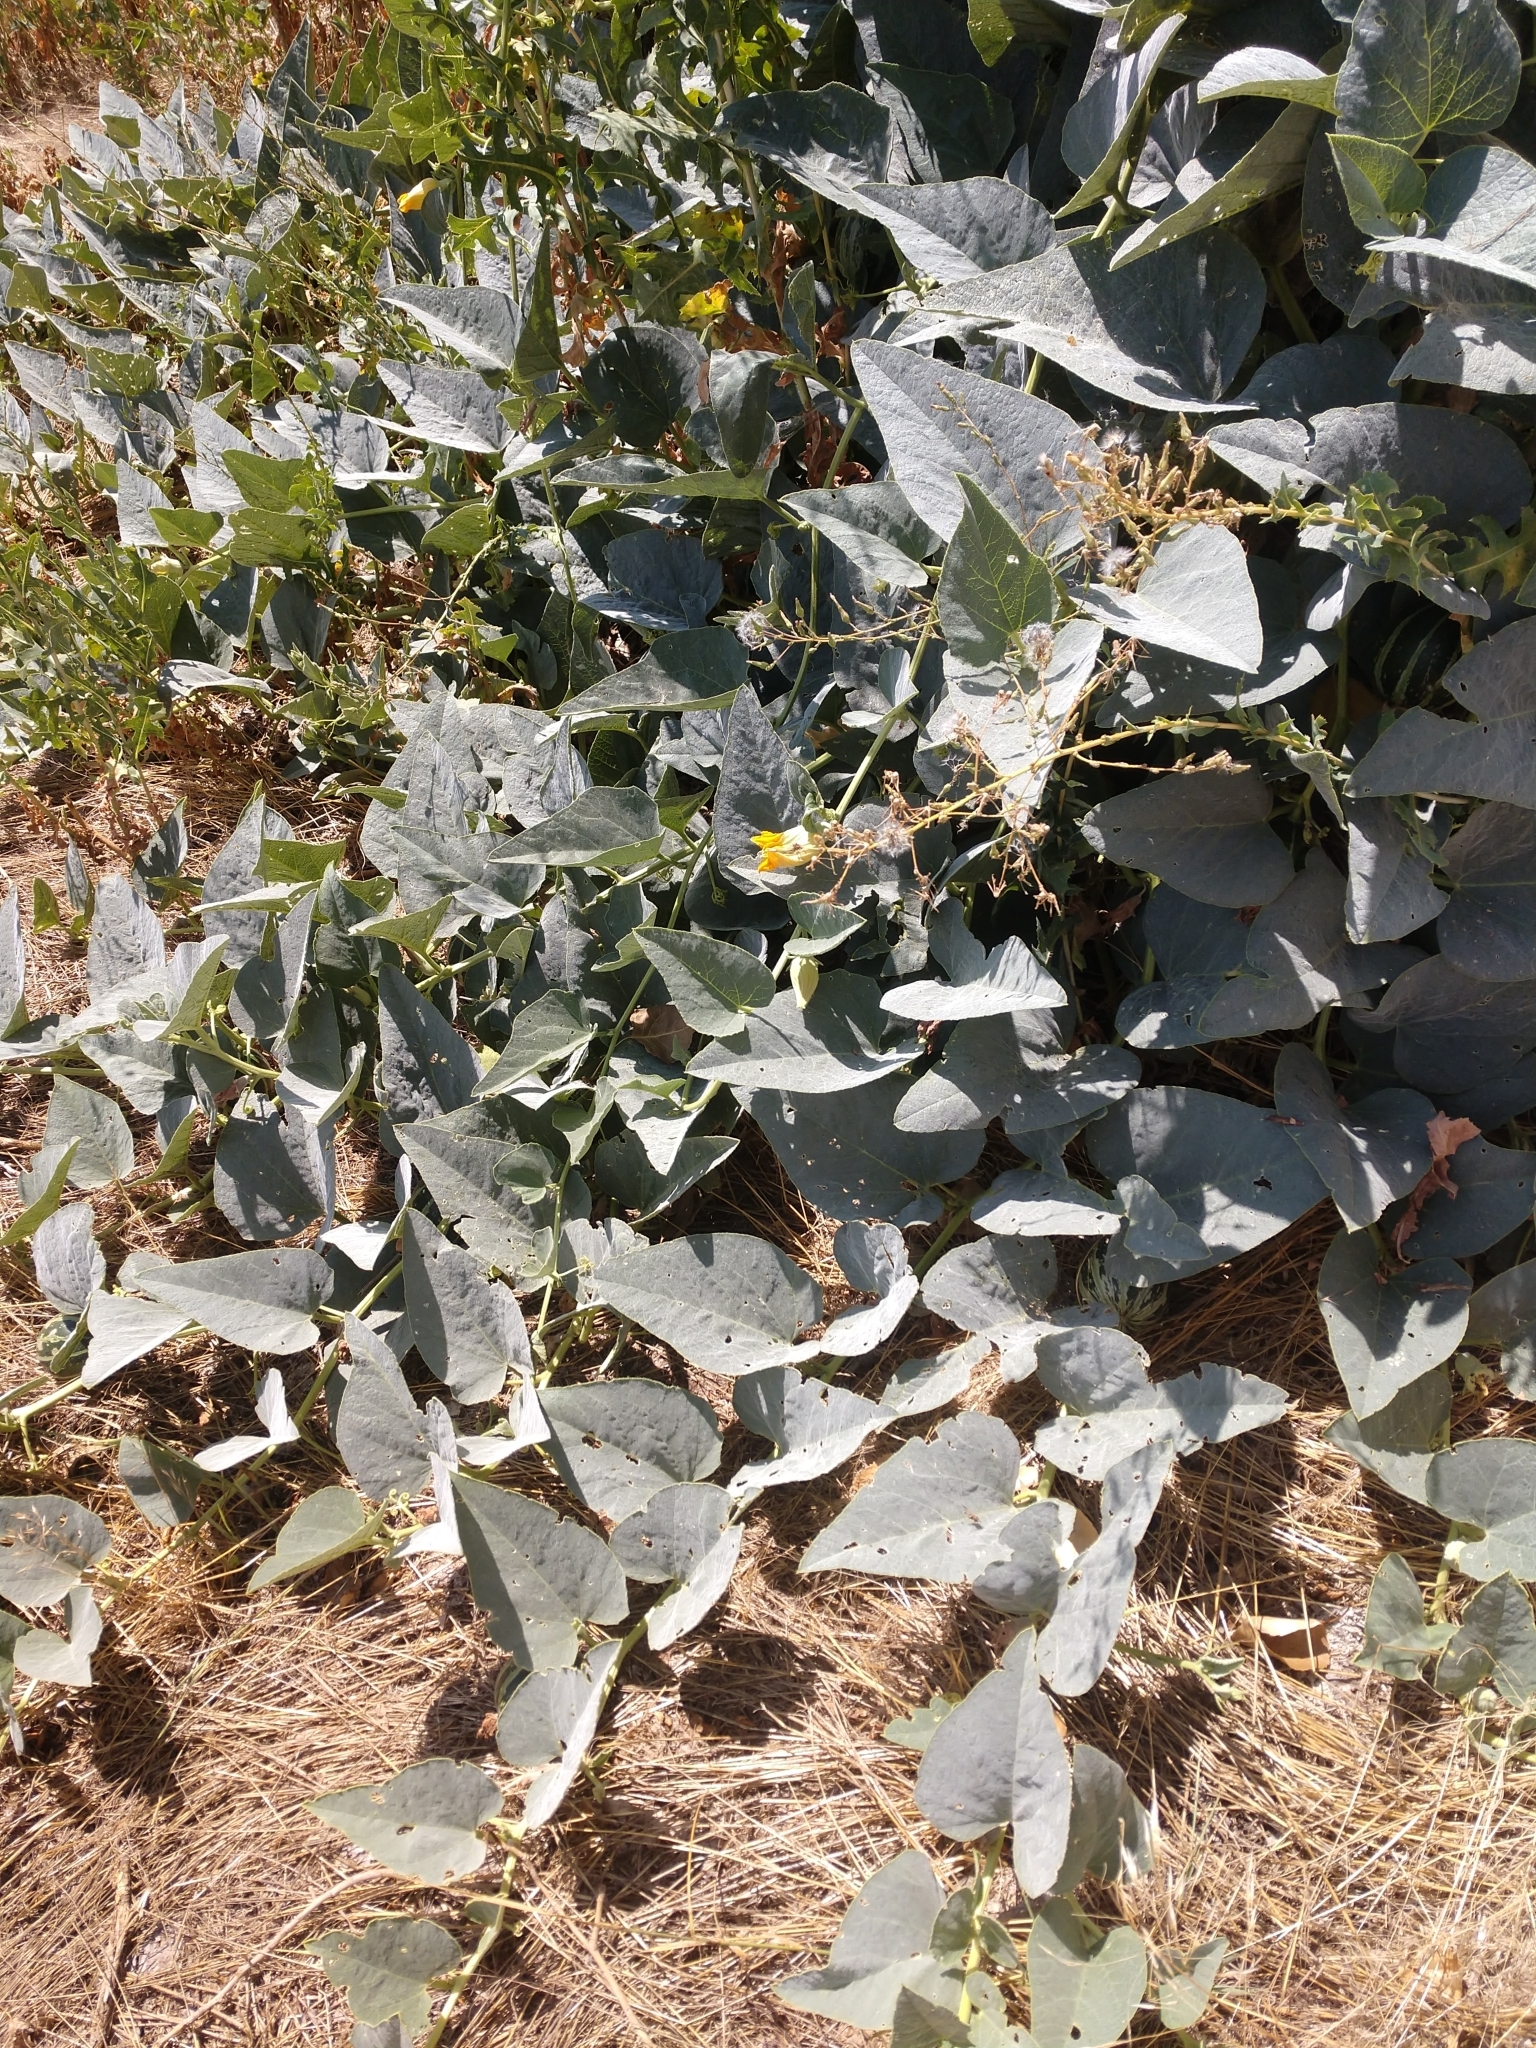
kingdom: Plantae
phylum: Tracheophyta
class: Magnoliopsida
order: Cucurbitales
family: Cucurbitaceae
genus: Cucurbita
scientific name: Cucurbita foetidissima
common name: Buffalo gourd
